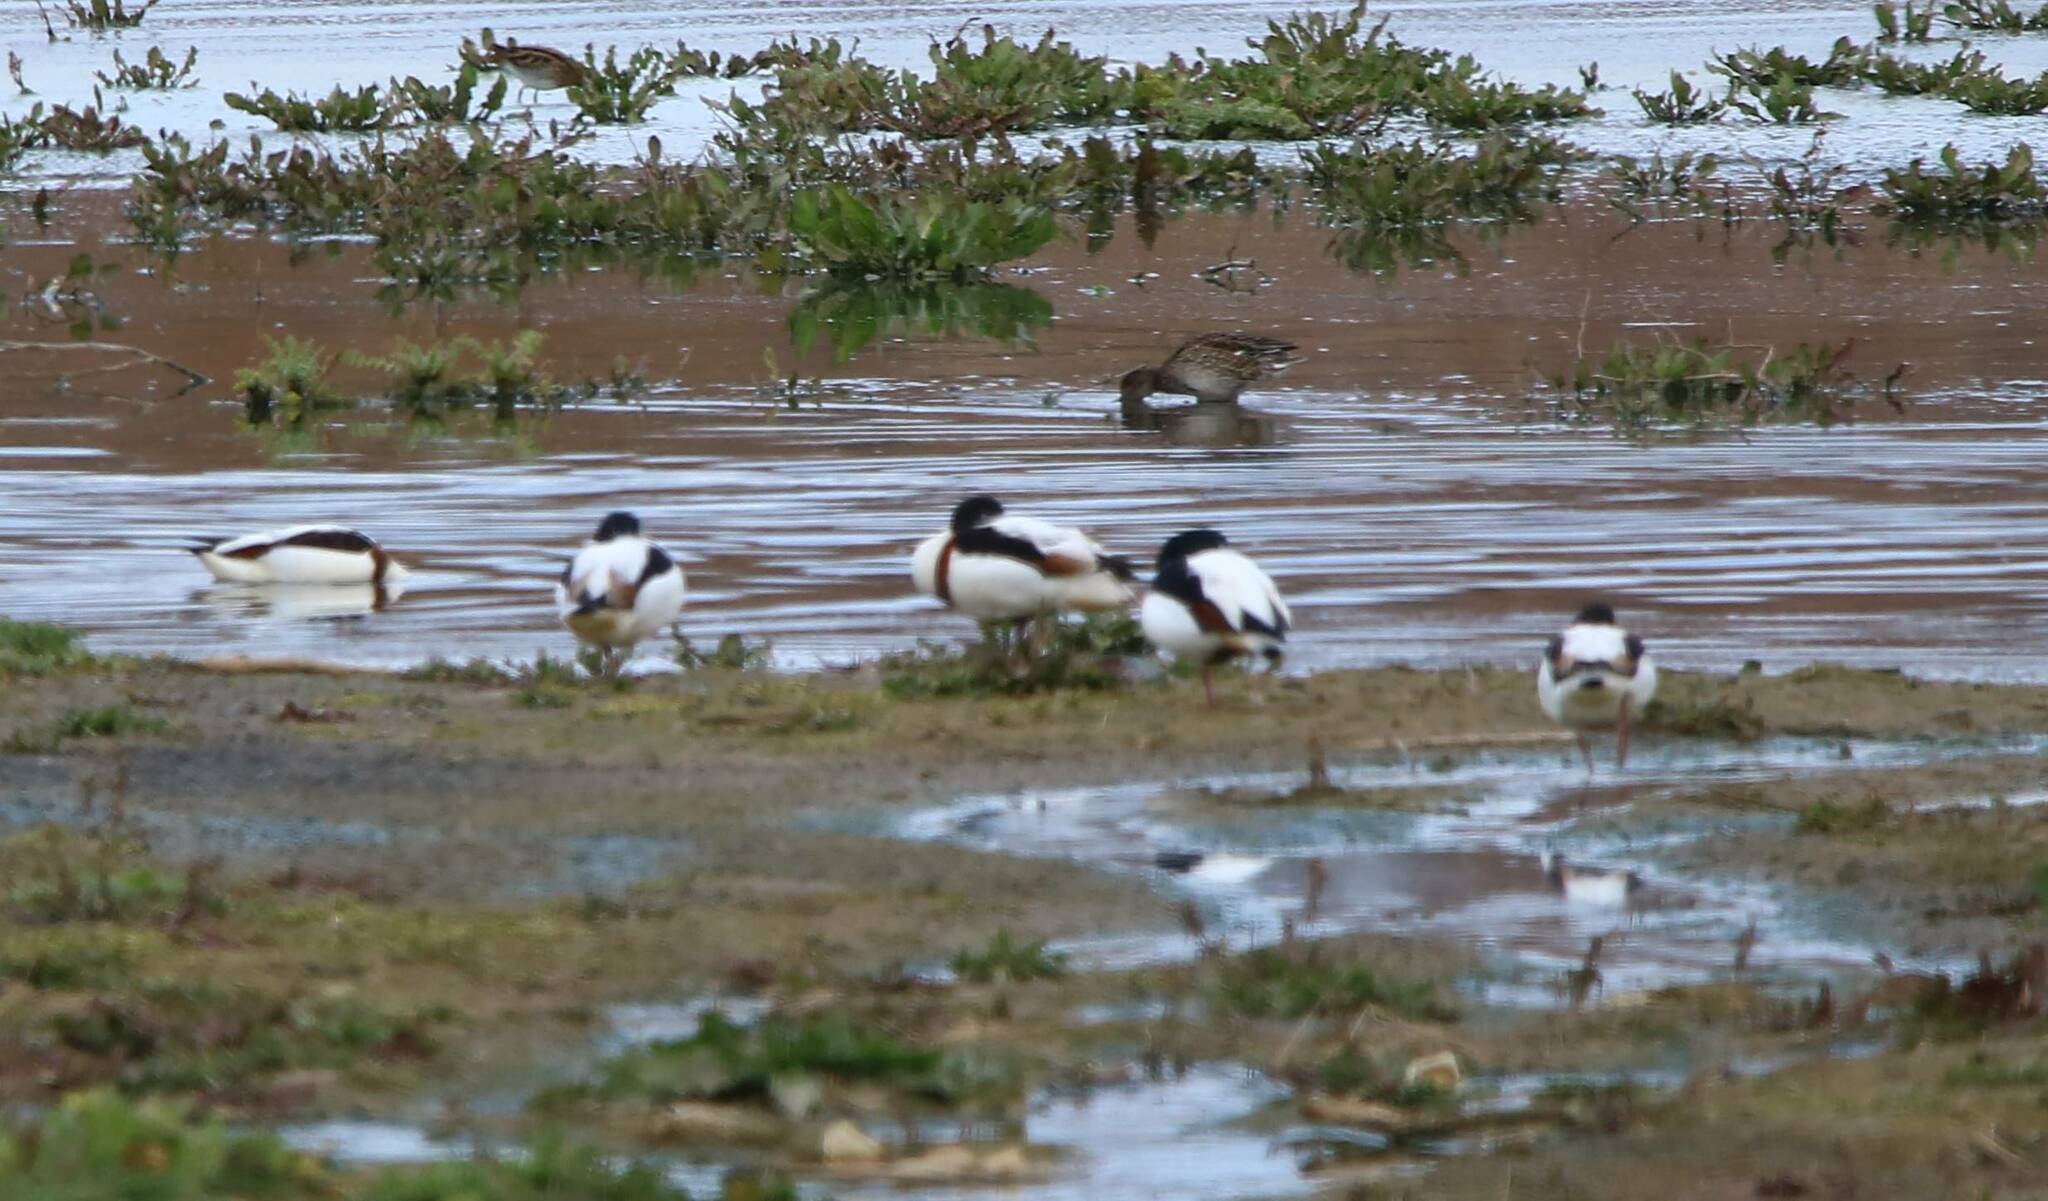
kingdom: Animalia
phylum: Chordata
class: Aves
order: Anseriformes
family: Anatidae
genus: Tadorna
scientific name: Tadorna tadorna
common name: Common shelduck
